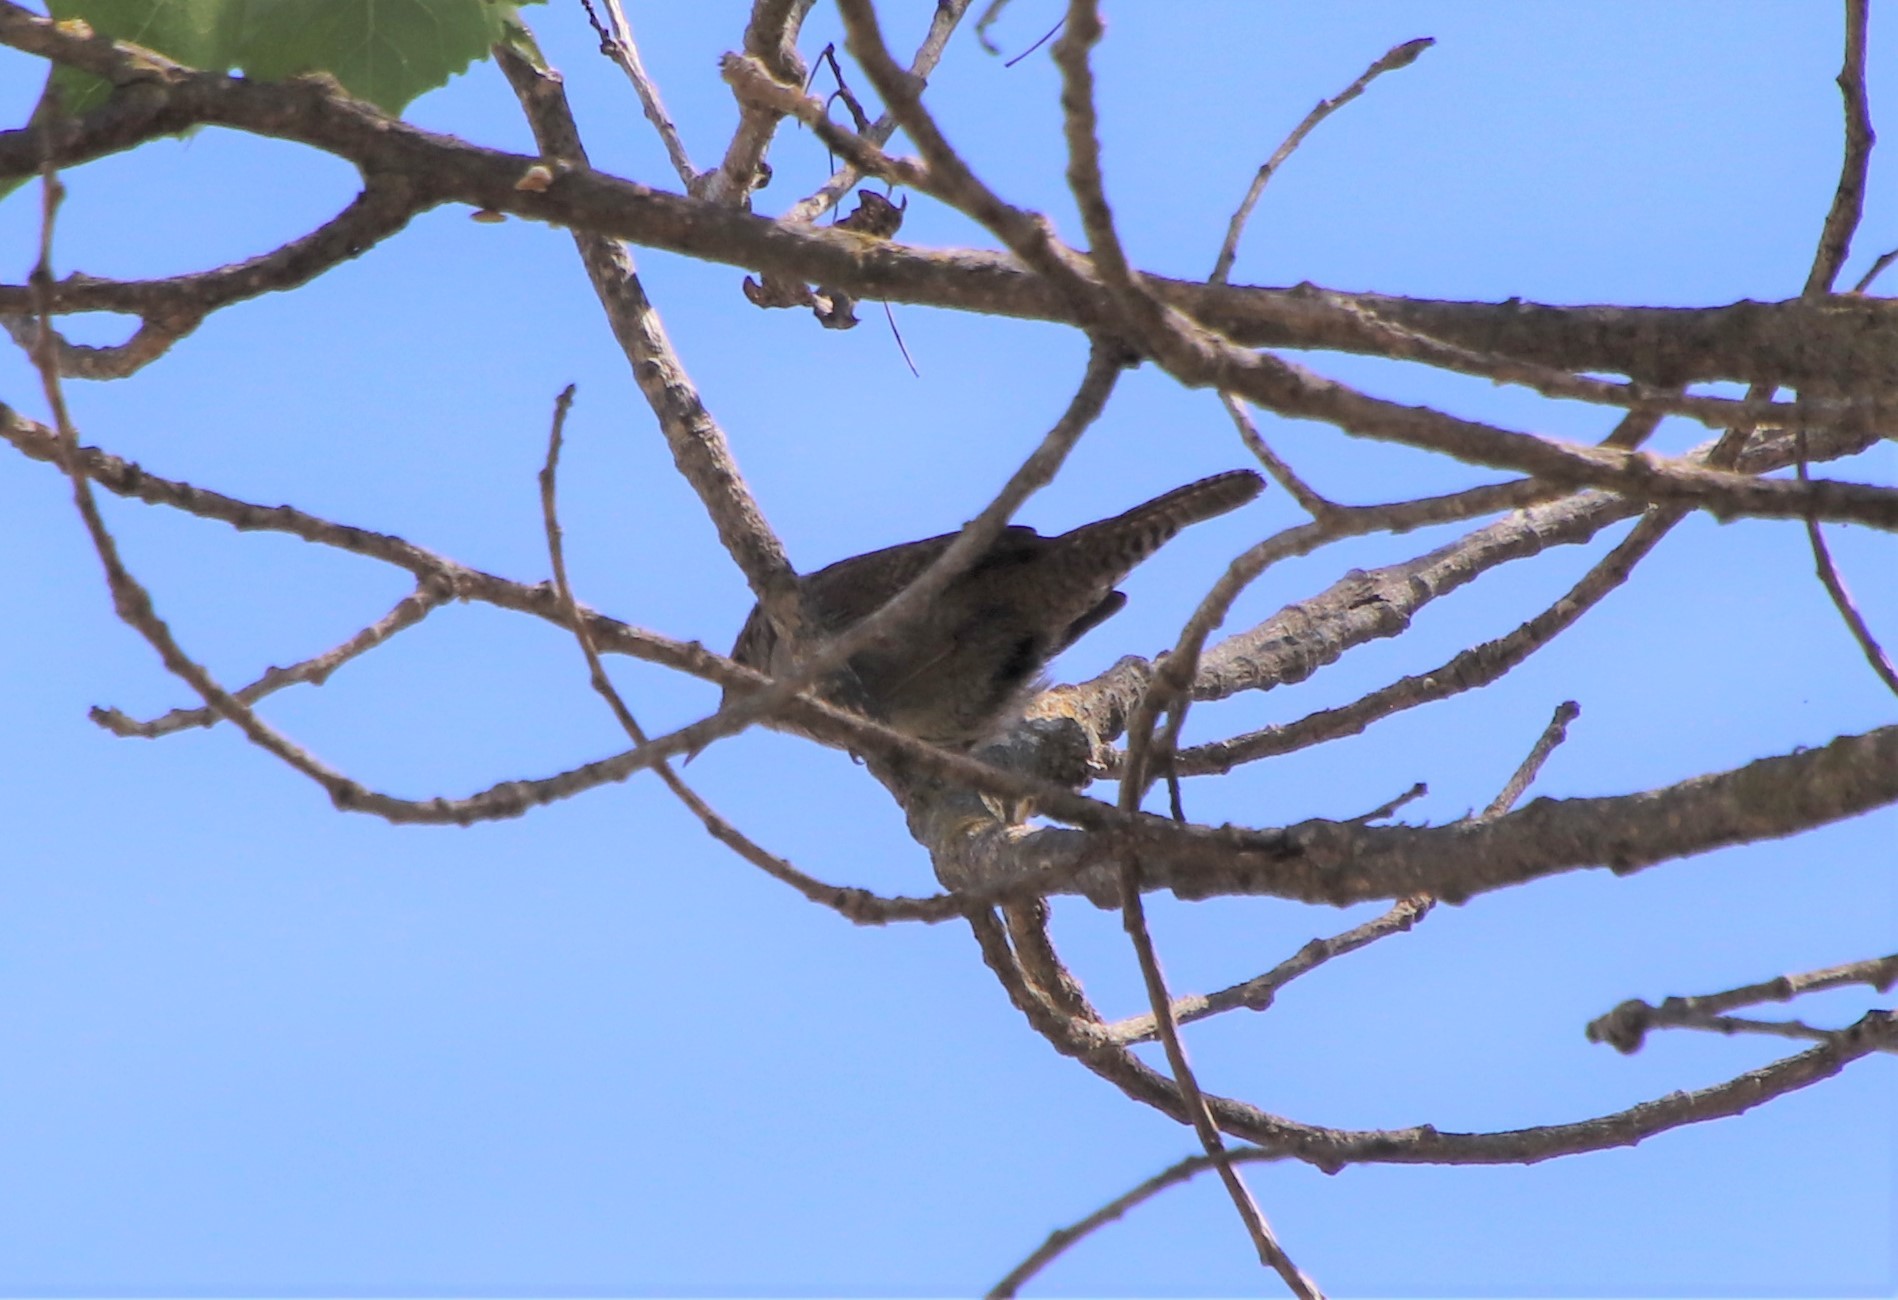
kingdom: Animalia
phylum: Chordata
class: Aves
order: Passeriformes
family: Troglodytidae
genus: Troglodytes
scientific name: Troglodytes aedon
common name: House wren
